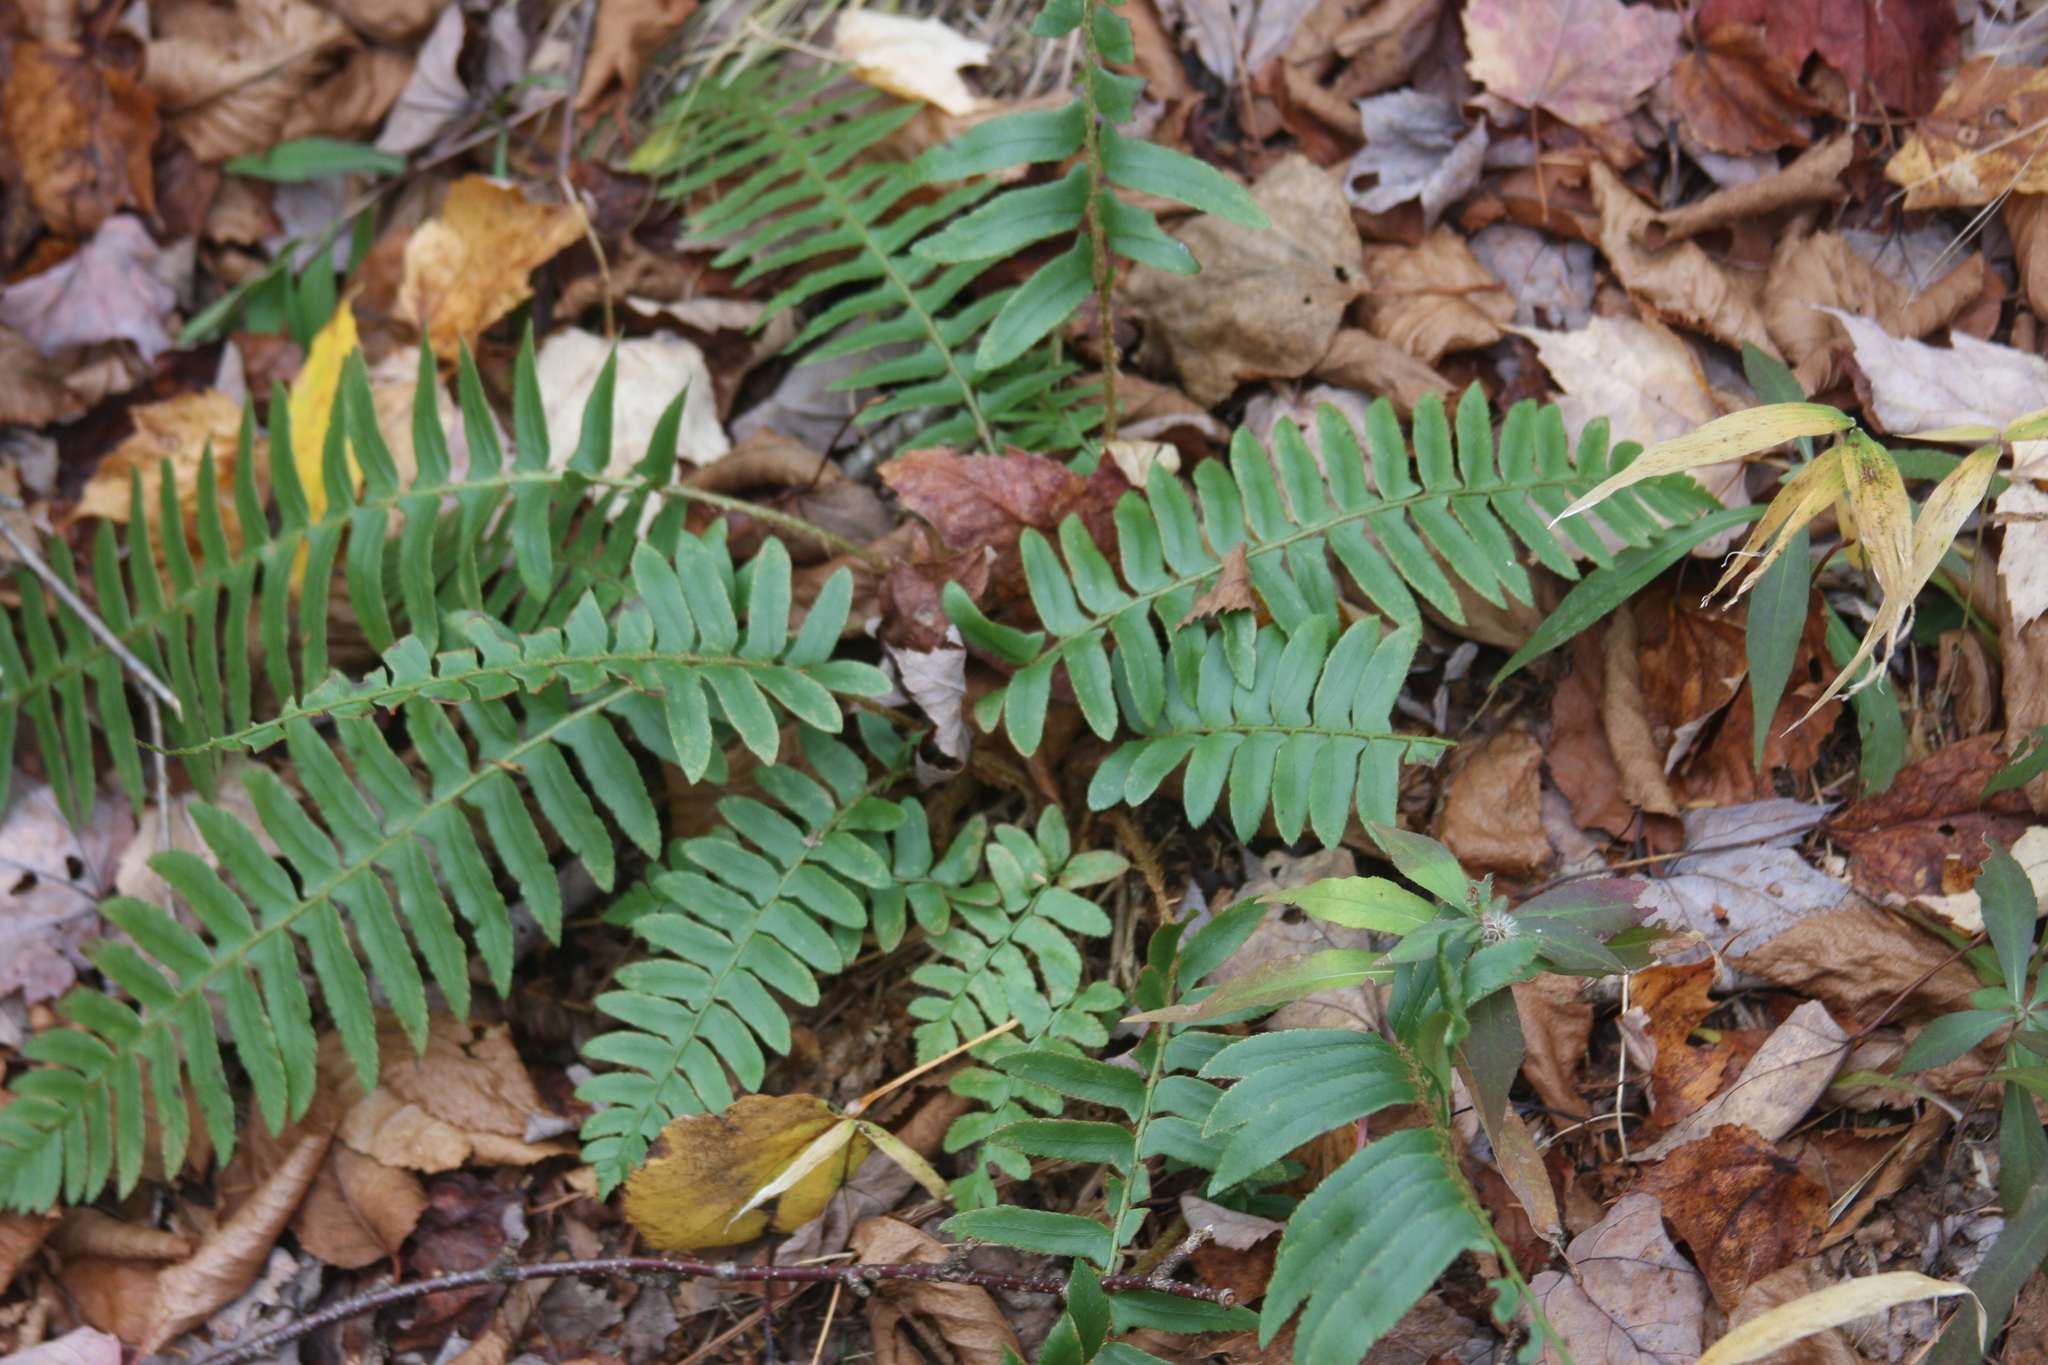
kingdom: Plantae
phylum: Tracheophyta
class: Polypodiopsida
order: Polypodiales
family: Dryopteridaceae
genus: Polystichum
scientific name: Polystichum acrostichoides
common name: Christmas fern
